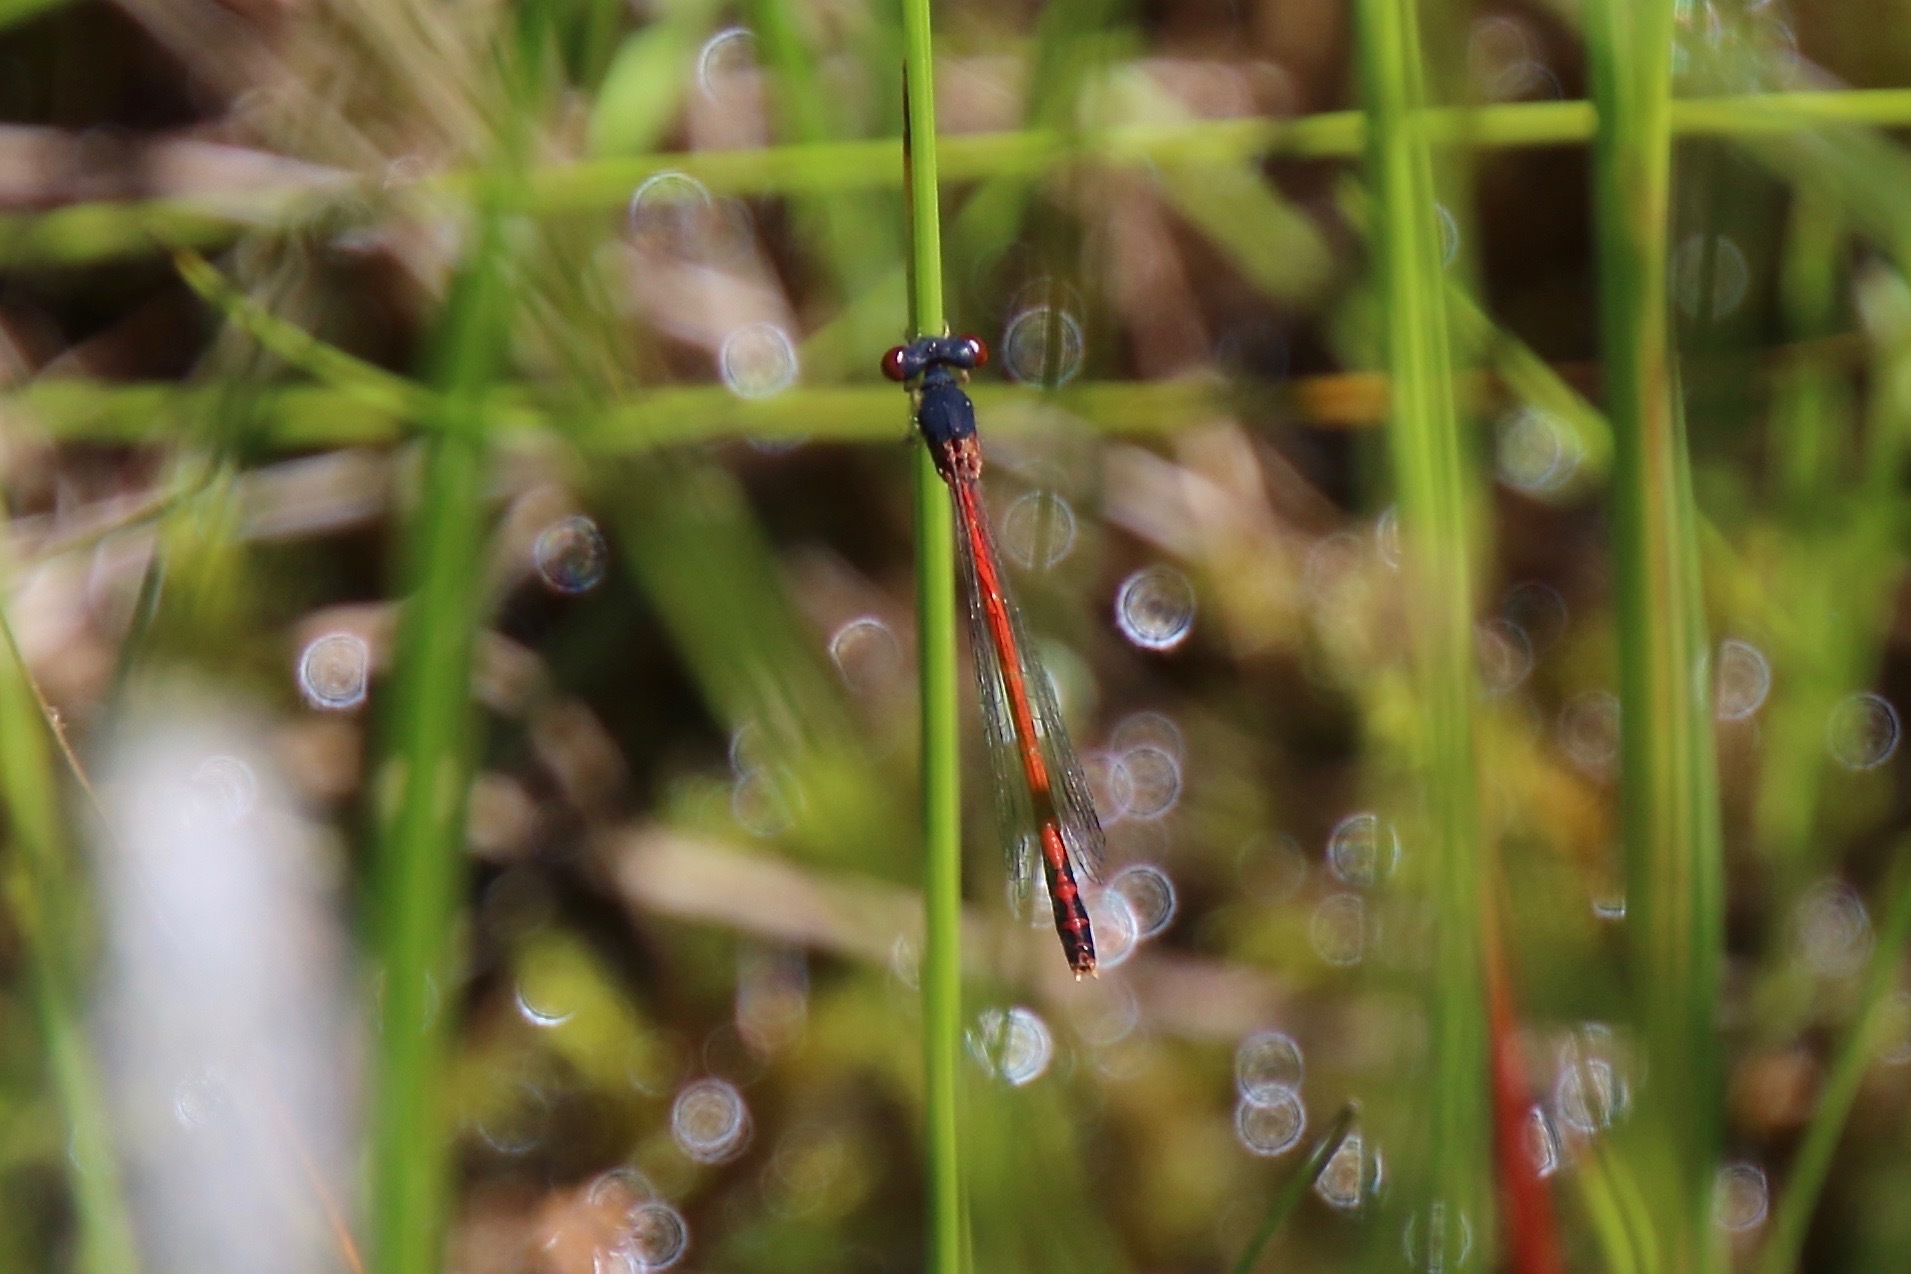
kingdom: Animalia
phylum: Arthropoda
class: Insecta
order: Odonata
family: Coenagrionidae
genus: Amphiagrion
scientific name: Amphiagrion saucium
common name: Eastern red damsel
